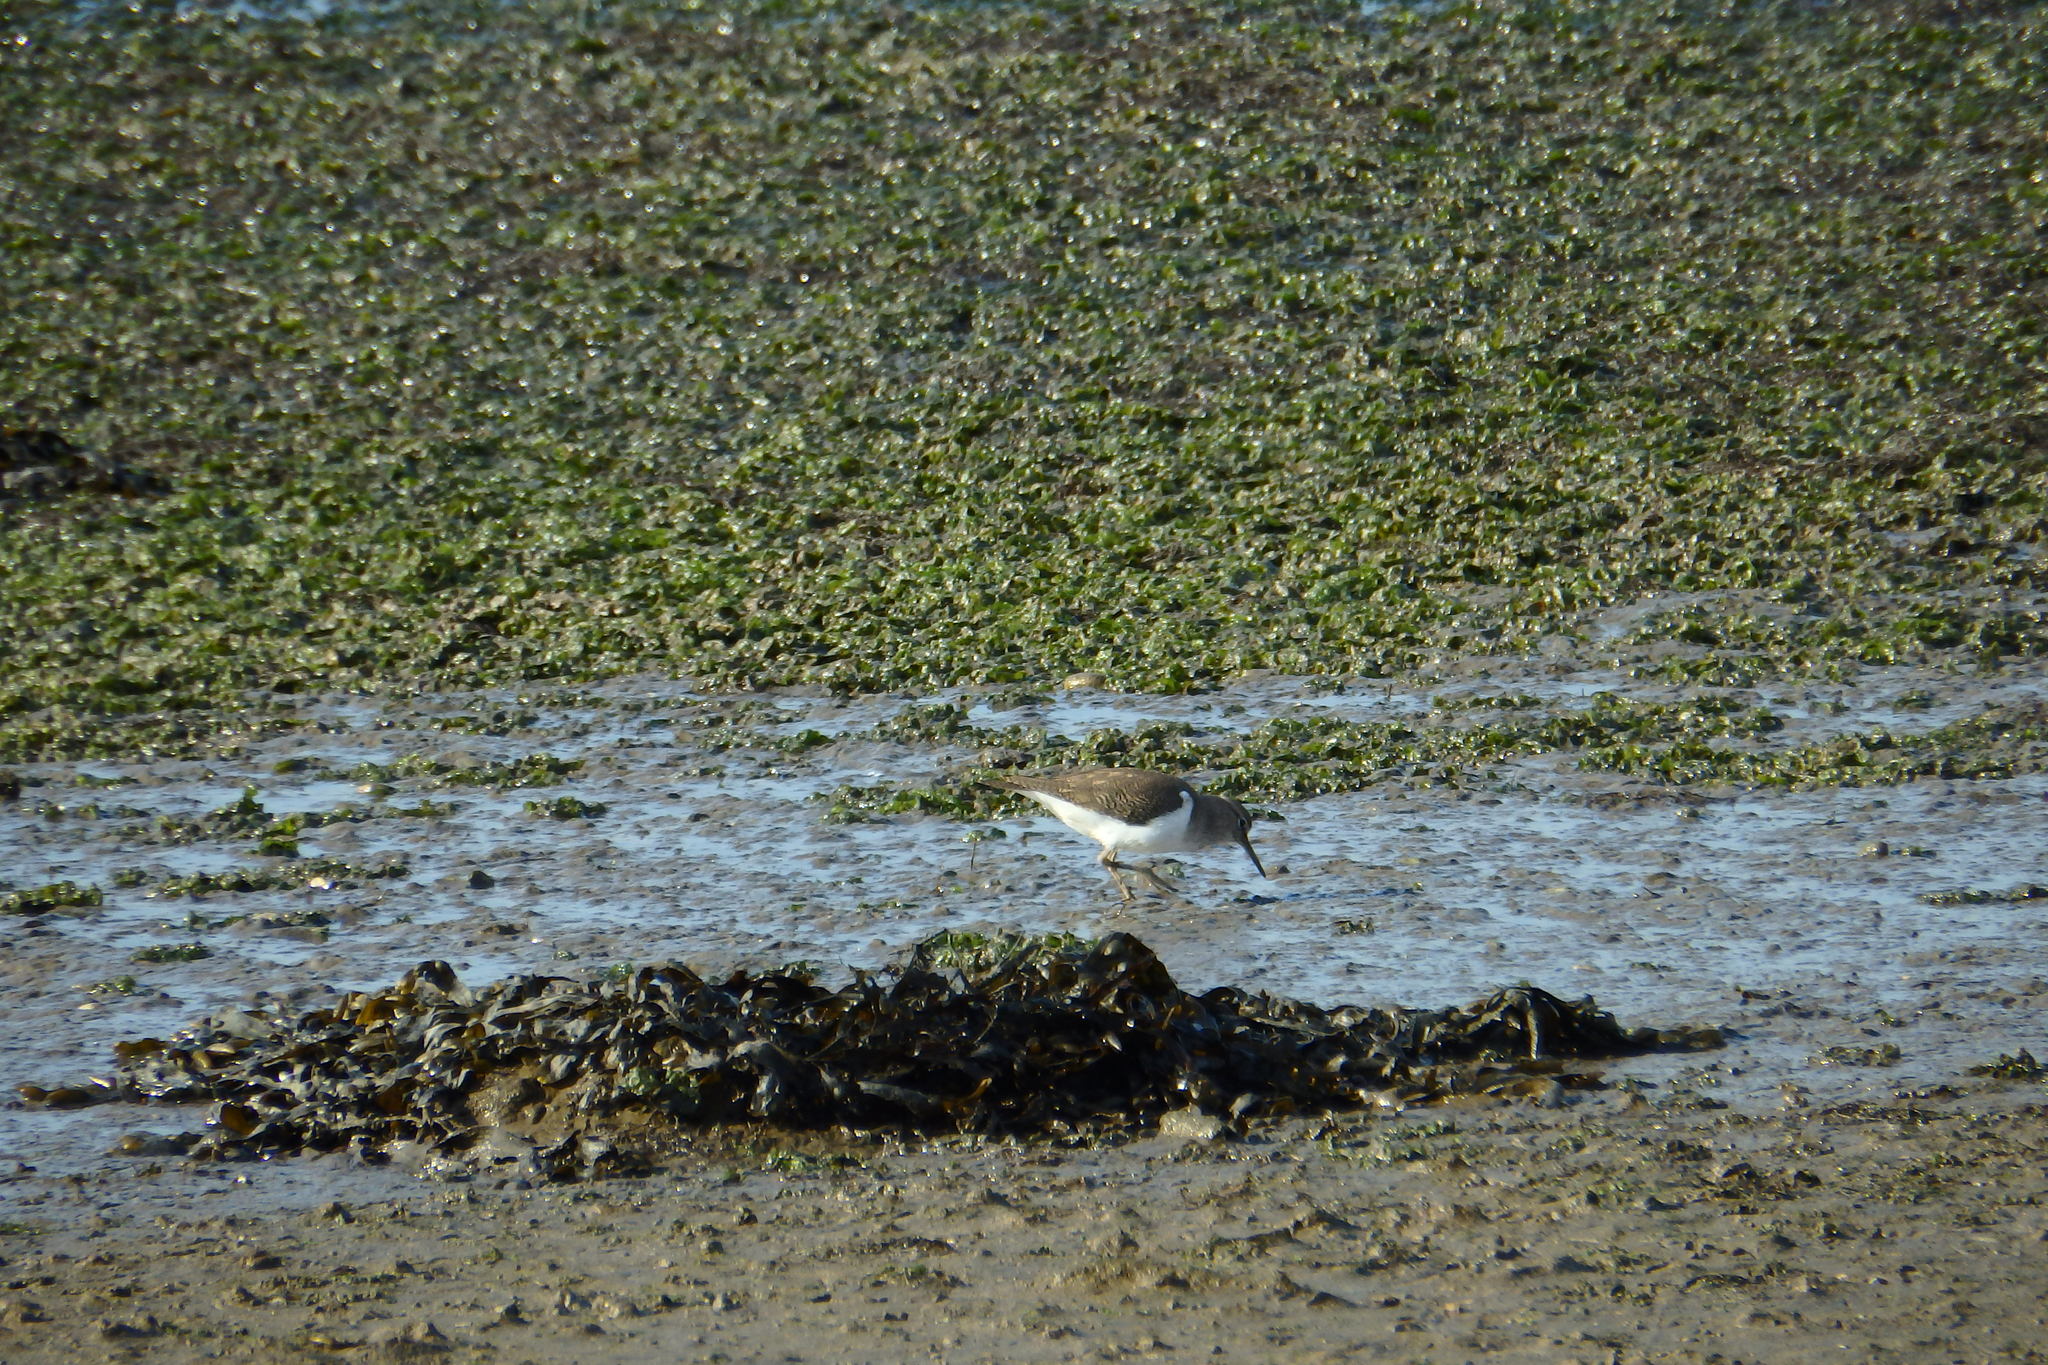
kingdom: Animalia
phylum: Chordata
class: Aves
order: Charadriiformes
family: Scolopacidae
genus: Actitis
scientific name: Actitis hypoleucos
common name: Common sandpiper
